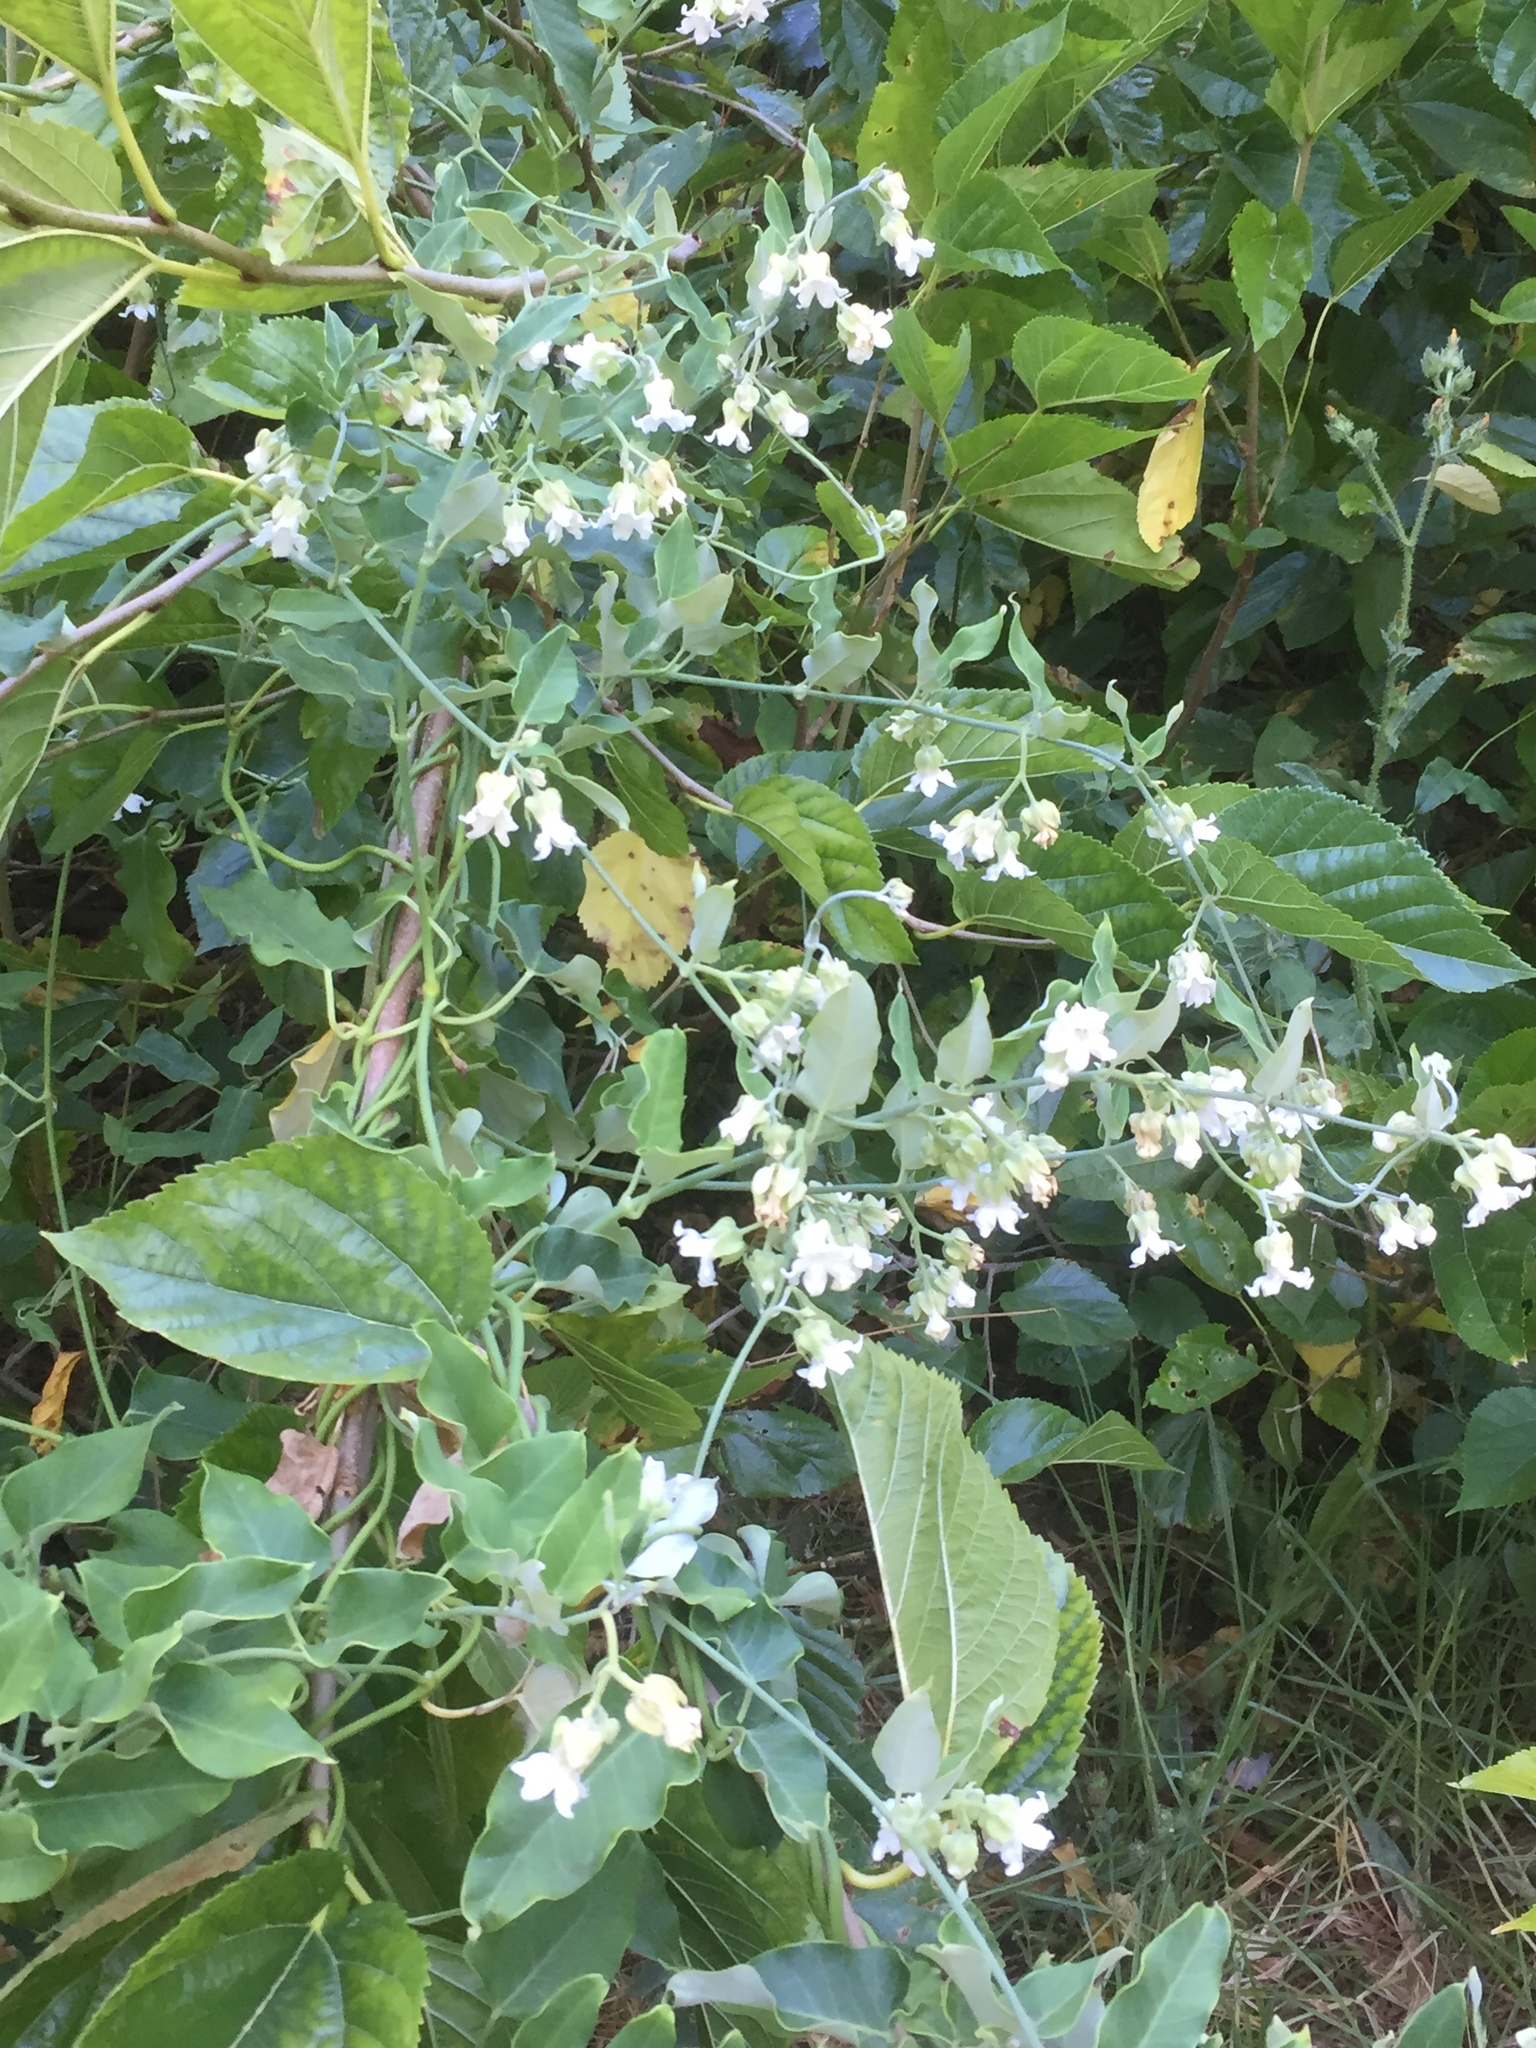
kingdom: Plantae
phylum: Tracheophyta
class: Magnoliopsida
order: Gentianales
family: Apocynaceae
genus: Araujia
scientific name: Araujia sericifera
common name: White bladderflower
